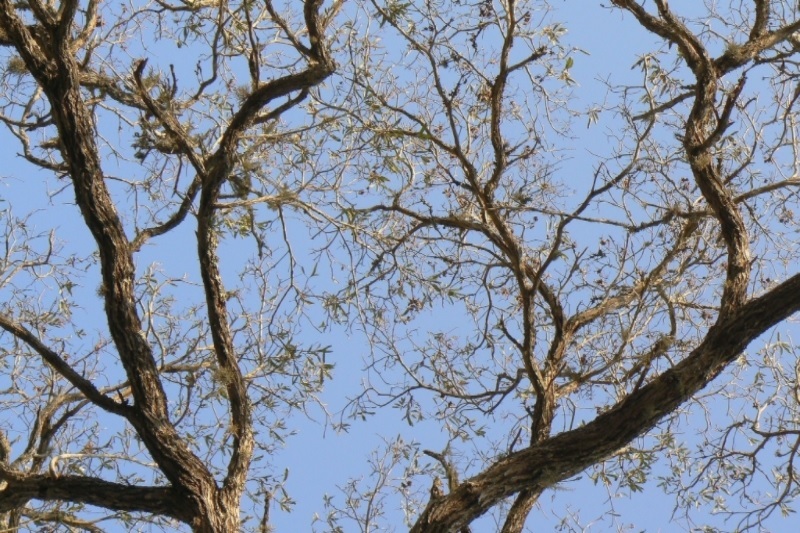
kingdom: Plantae
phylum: Tracheophyta
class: Magnoliopsida
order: Myrtales
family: Combretaceae
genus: Terminalia
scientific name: Terminalia sericea
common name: Clusterleaf
